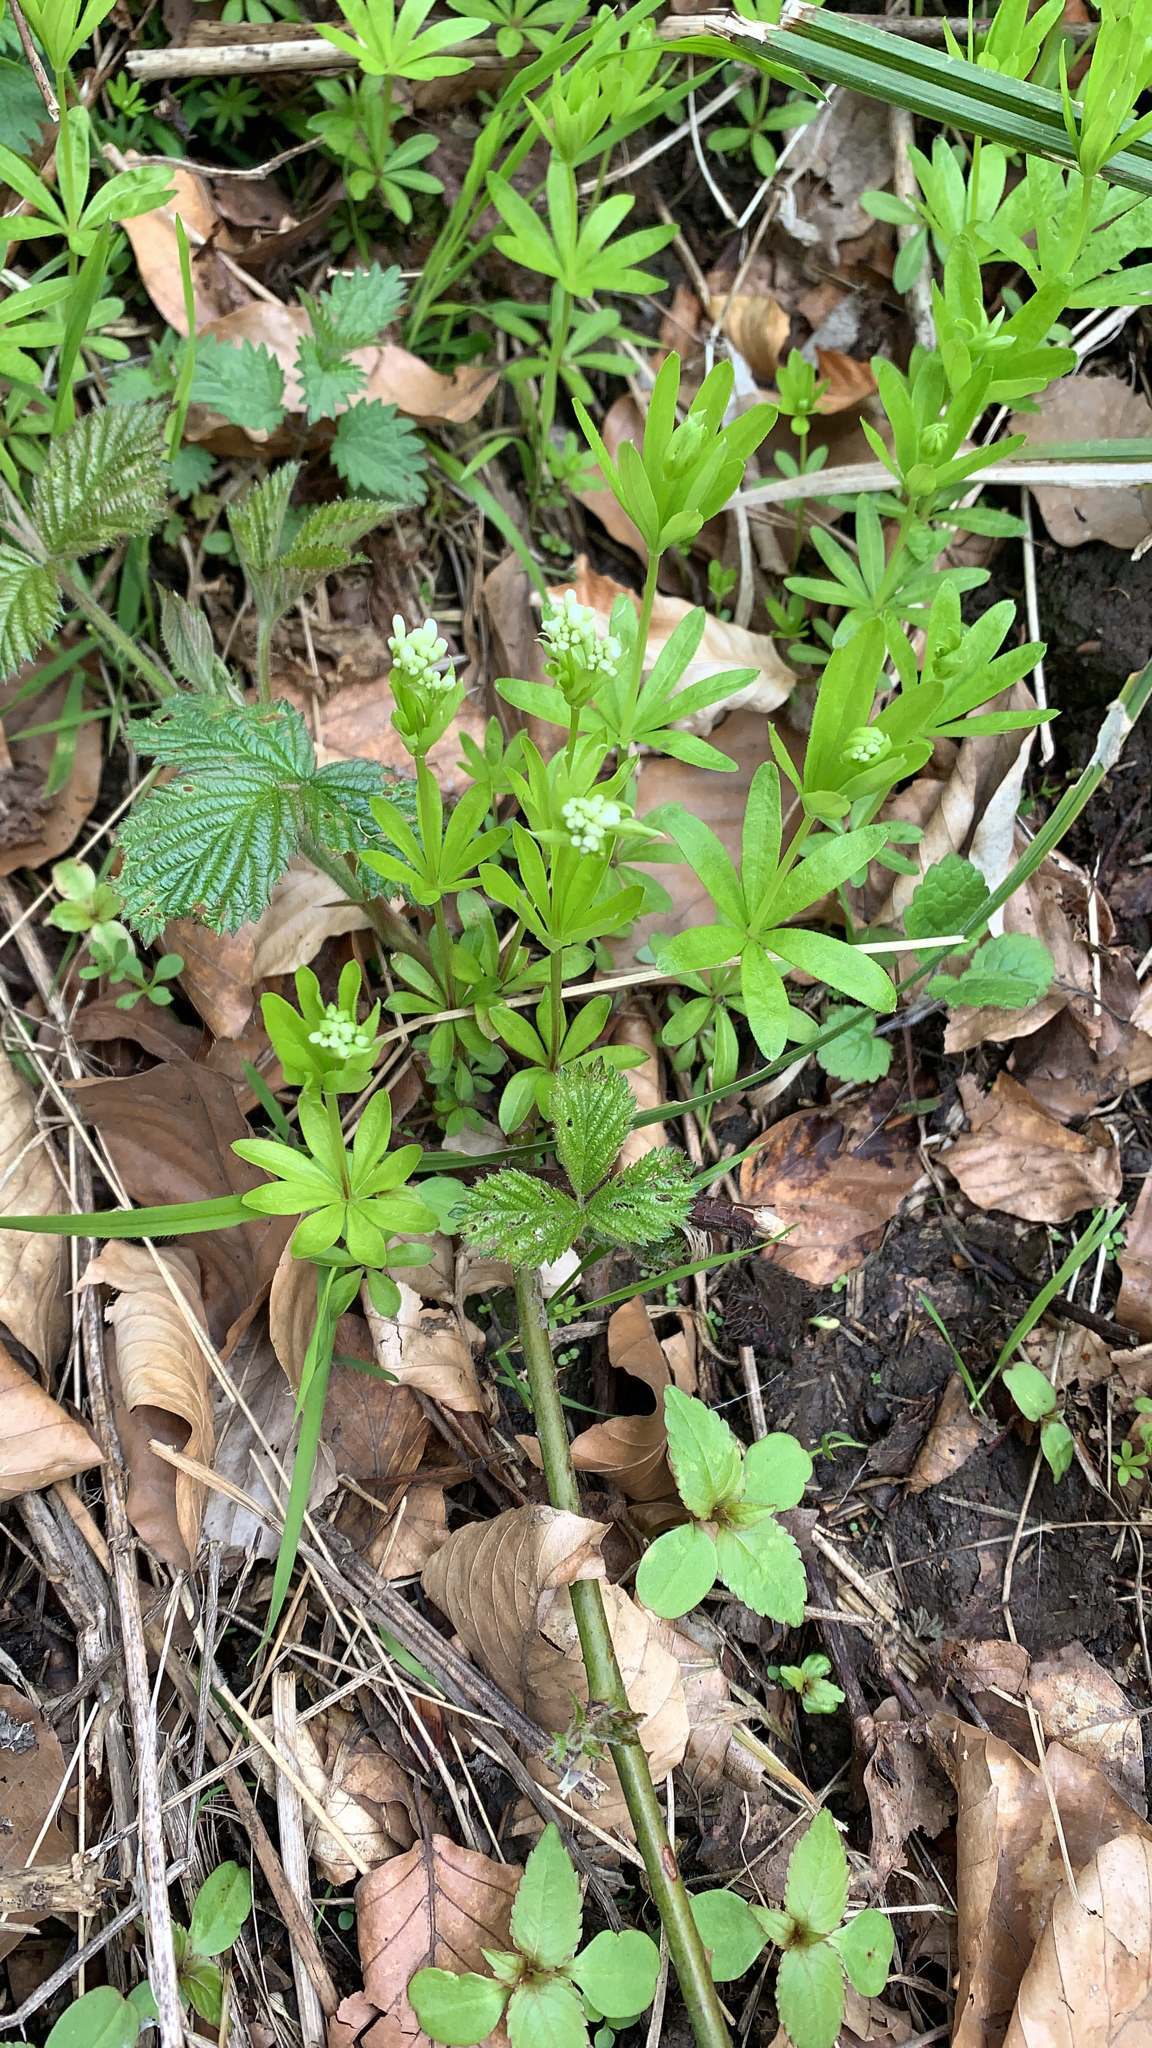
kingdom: Plantae
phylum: Tracheophyta
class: Magnoliopsida
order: Gentianales
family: Rubiaceae
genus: Galium
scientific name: Galium odoratum
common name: Sweet woodruff
